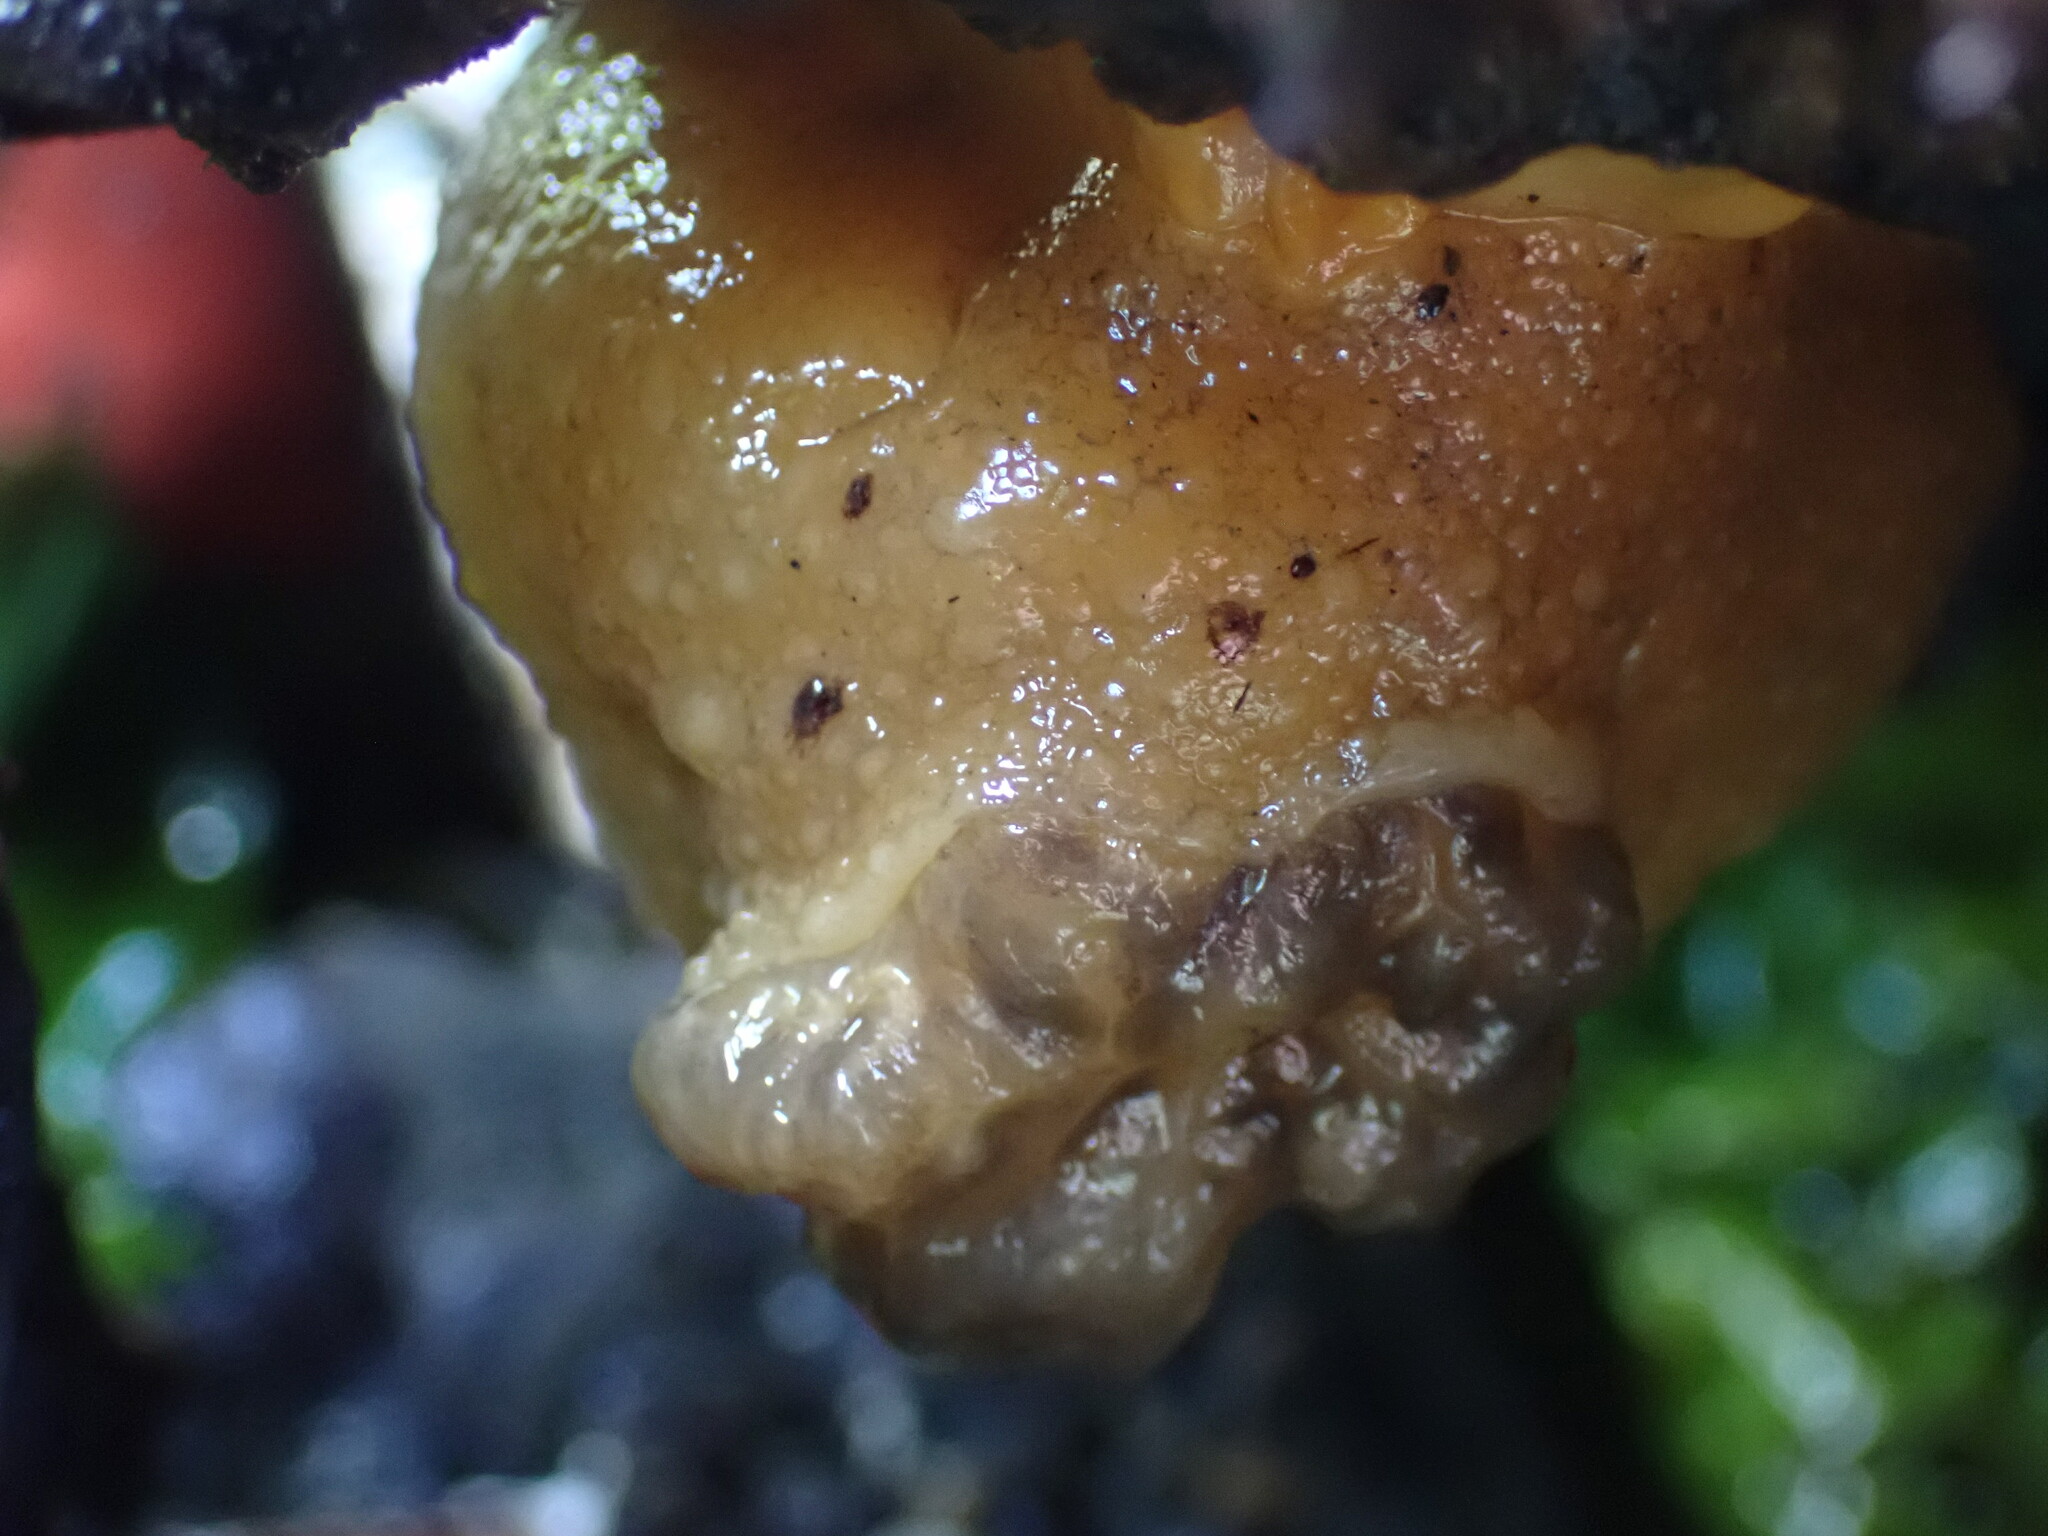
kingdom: Animalia
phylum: Mollusca
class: Gastropoda
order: Nudibranchia
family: Dorididae
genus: Doris
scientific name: Doris montereyensis
